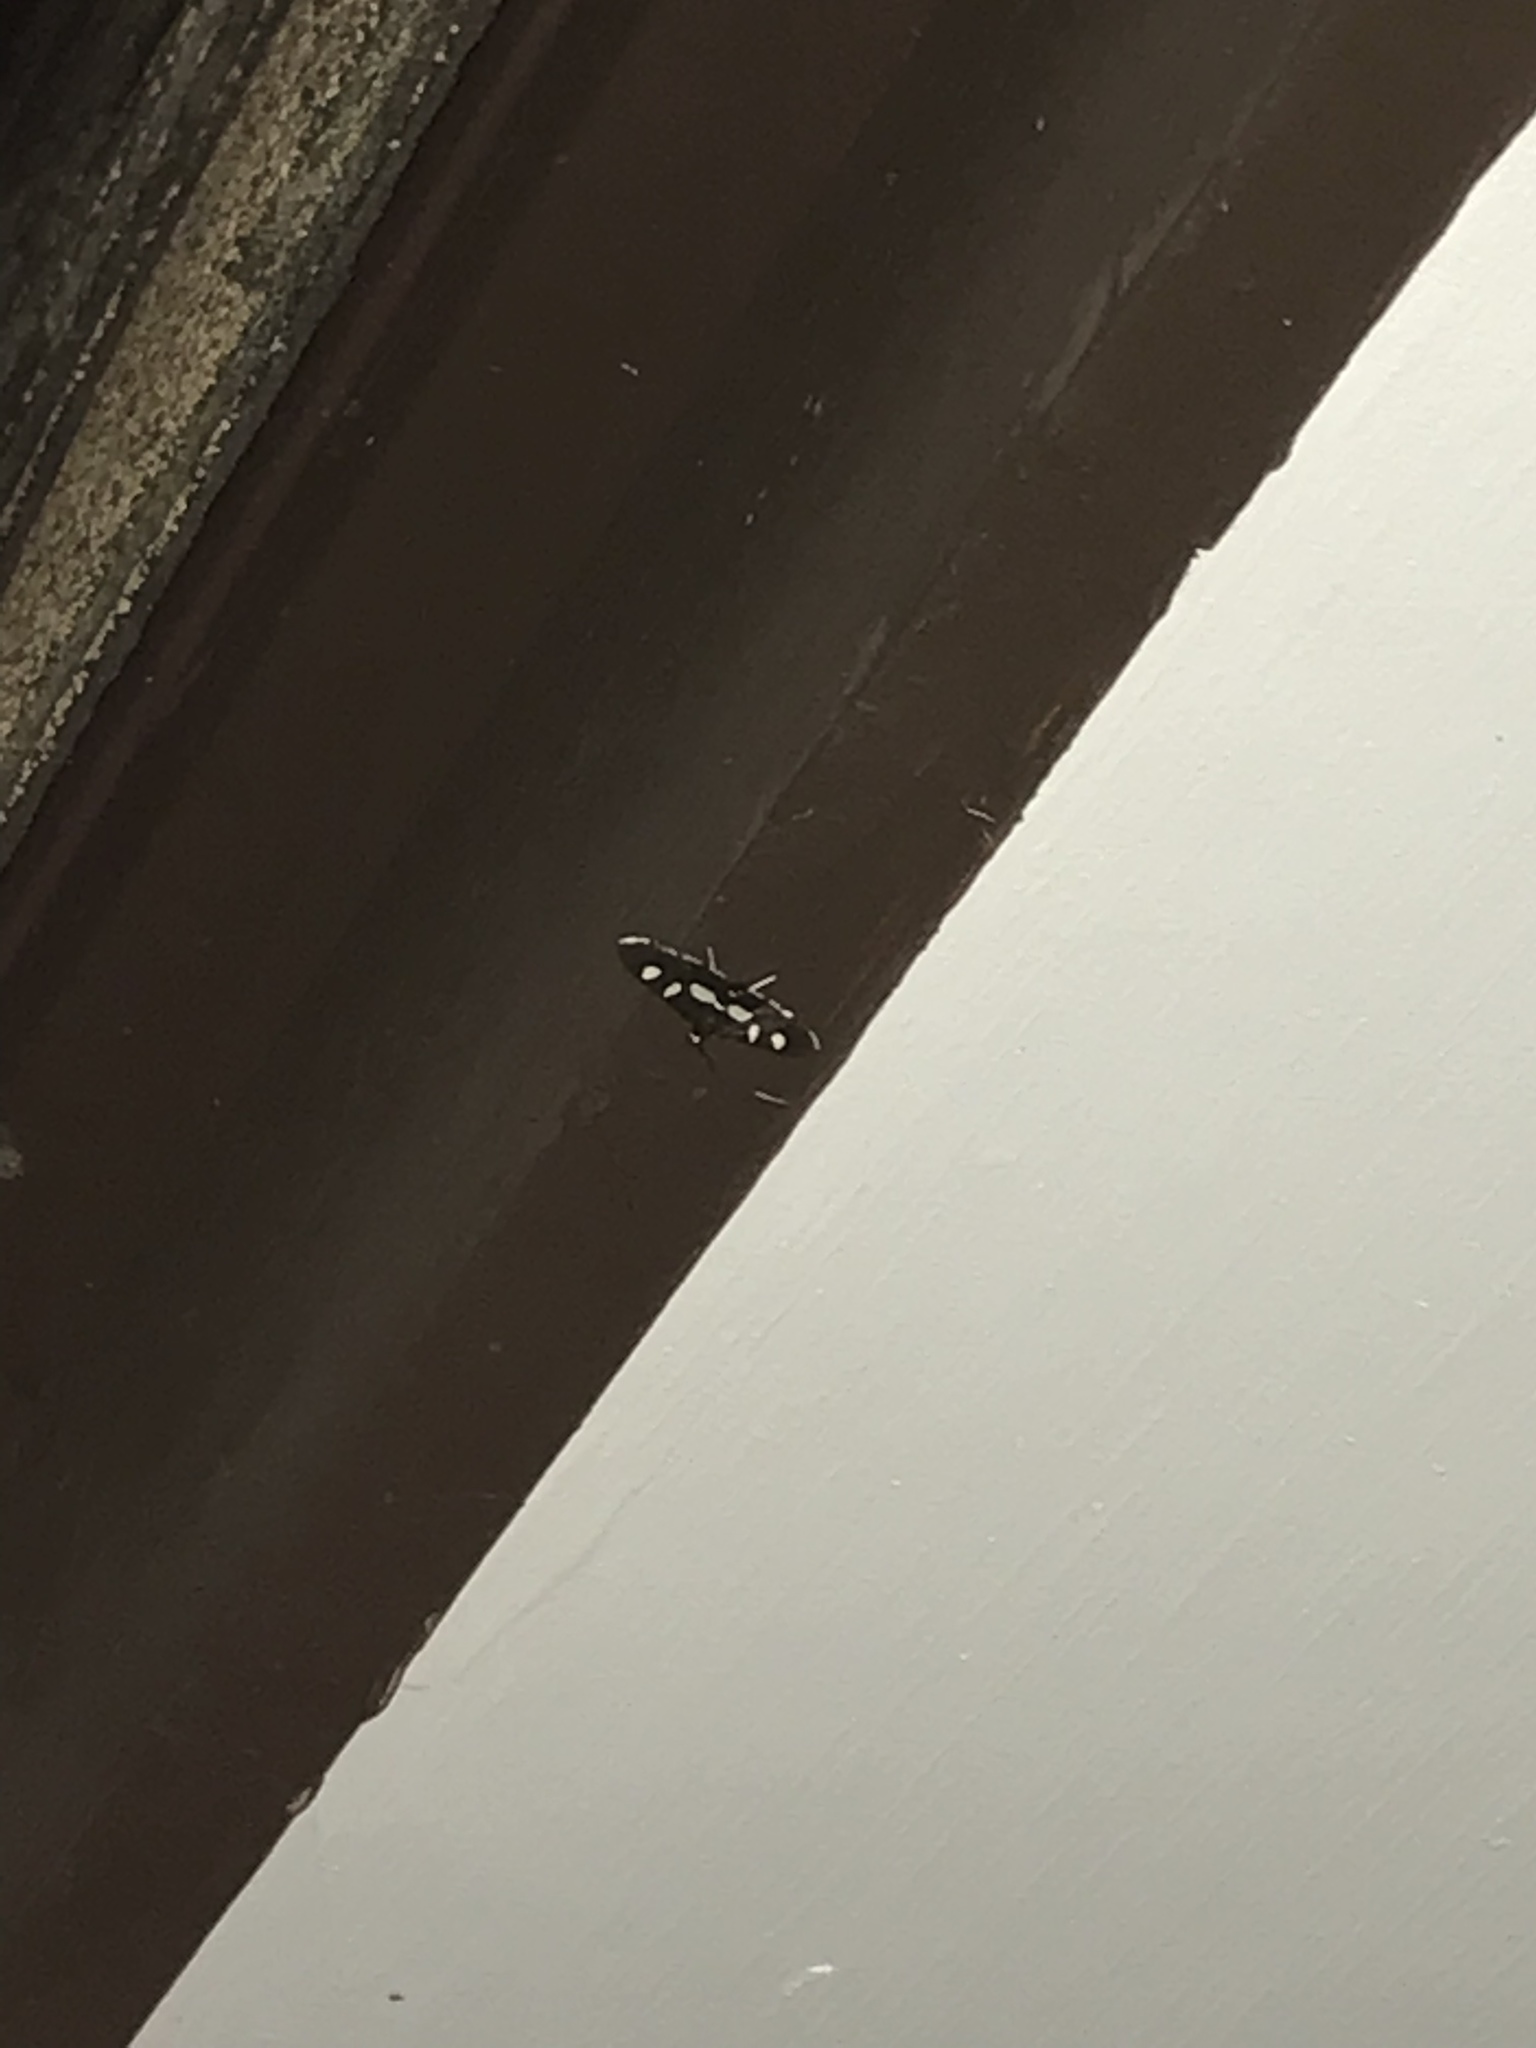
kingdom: Animalia
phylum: Arthropoda
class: Insecta
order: Lepidoptera
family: Crambidae
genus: Desmia
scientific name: Desmia
